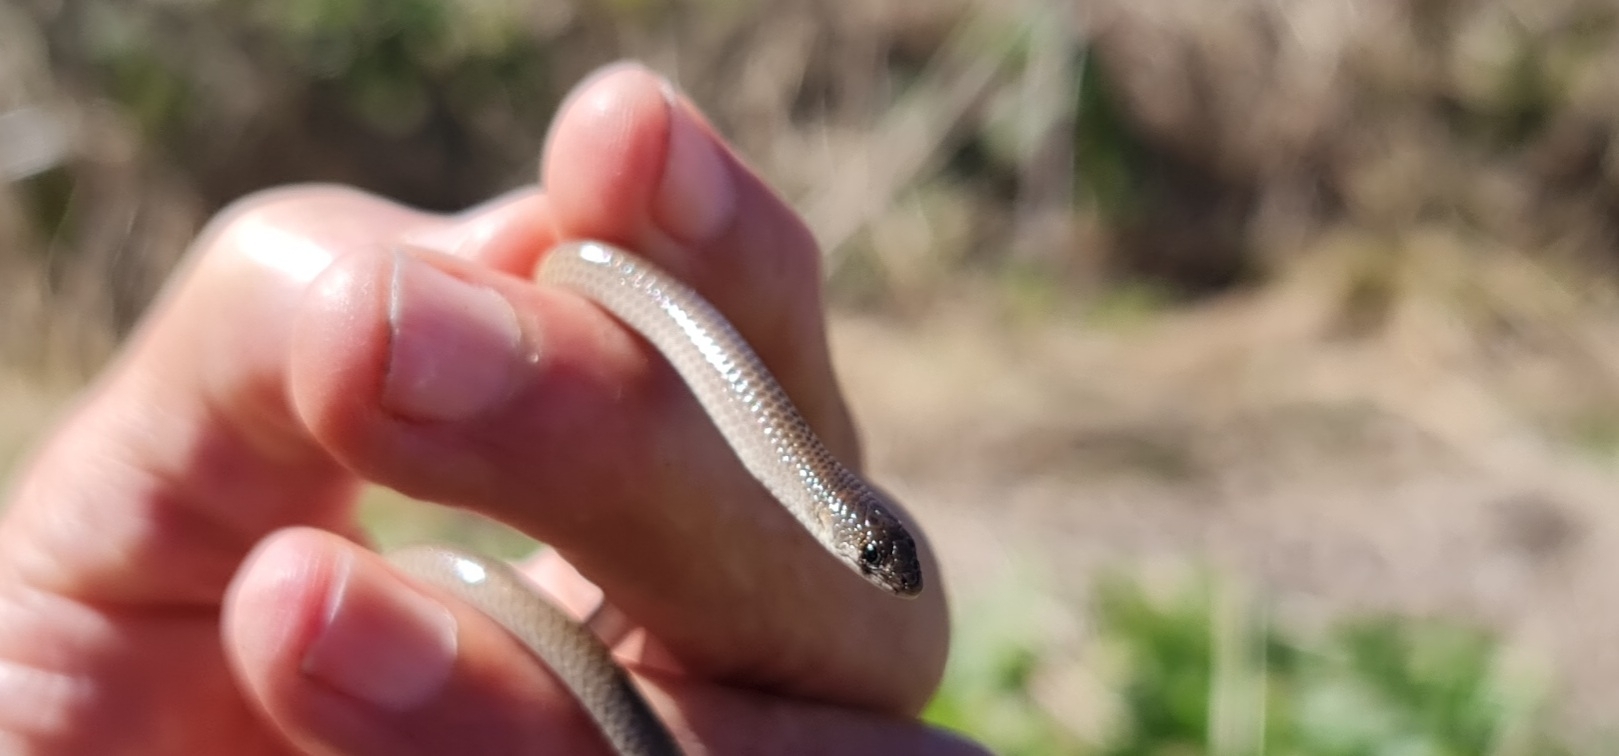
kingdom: Animalia
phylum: Chordata
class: Squamata
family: Pygopodidae
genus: Delma
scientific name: Delma tincta
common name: Excitable delma
